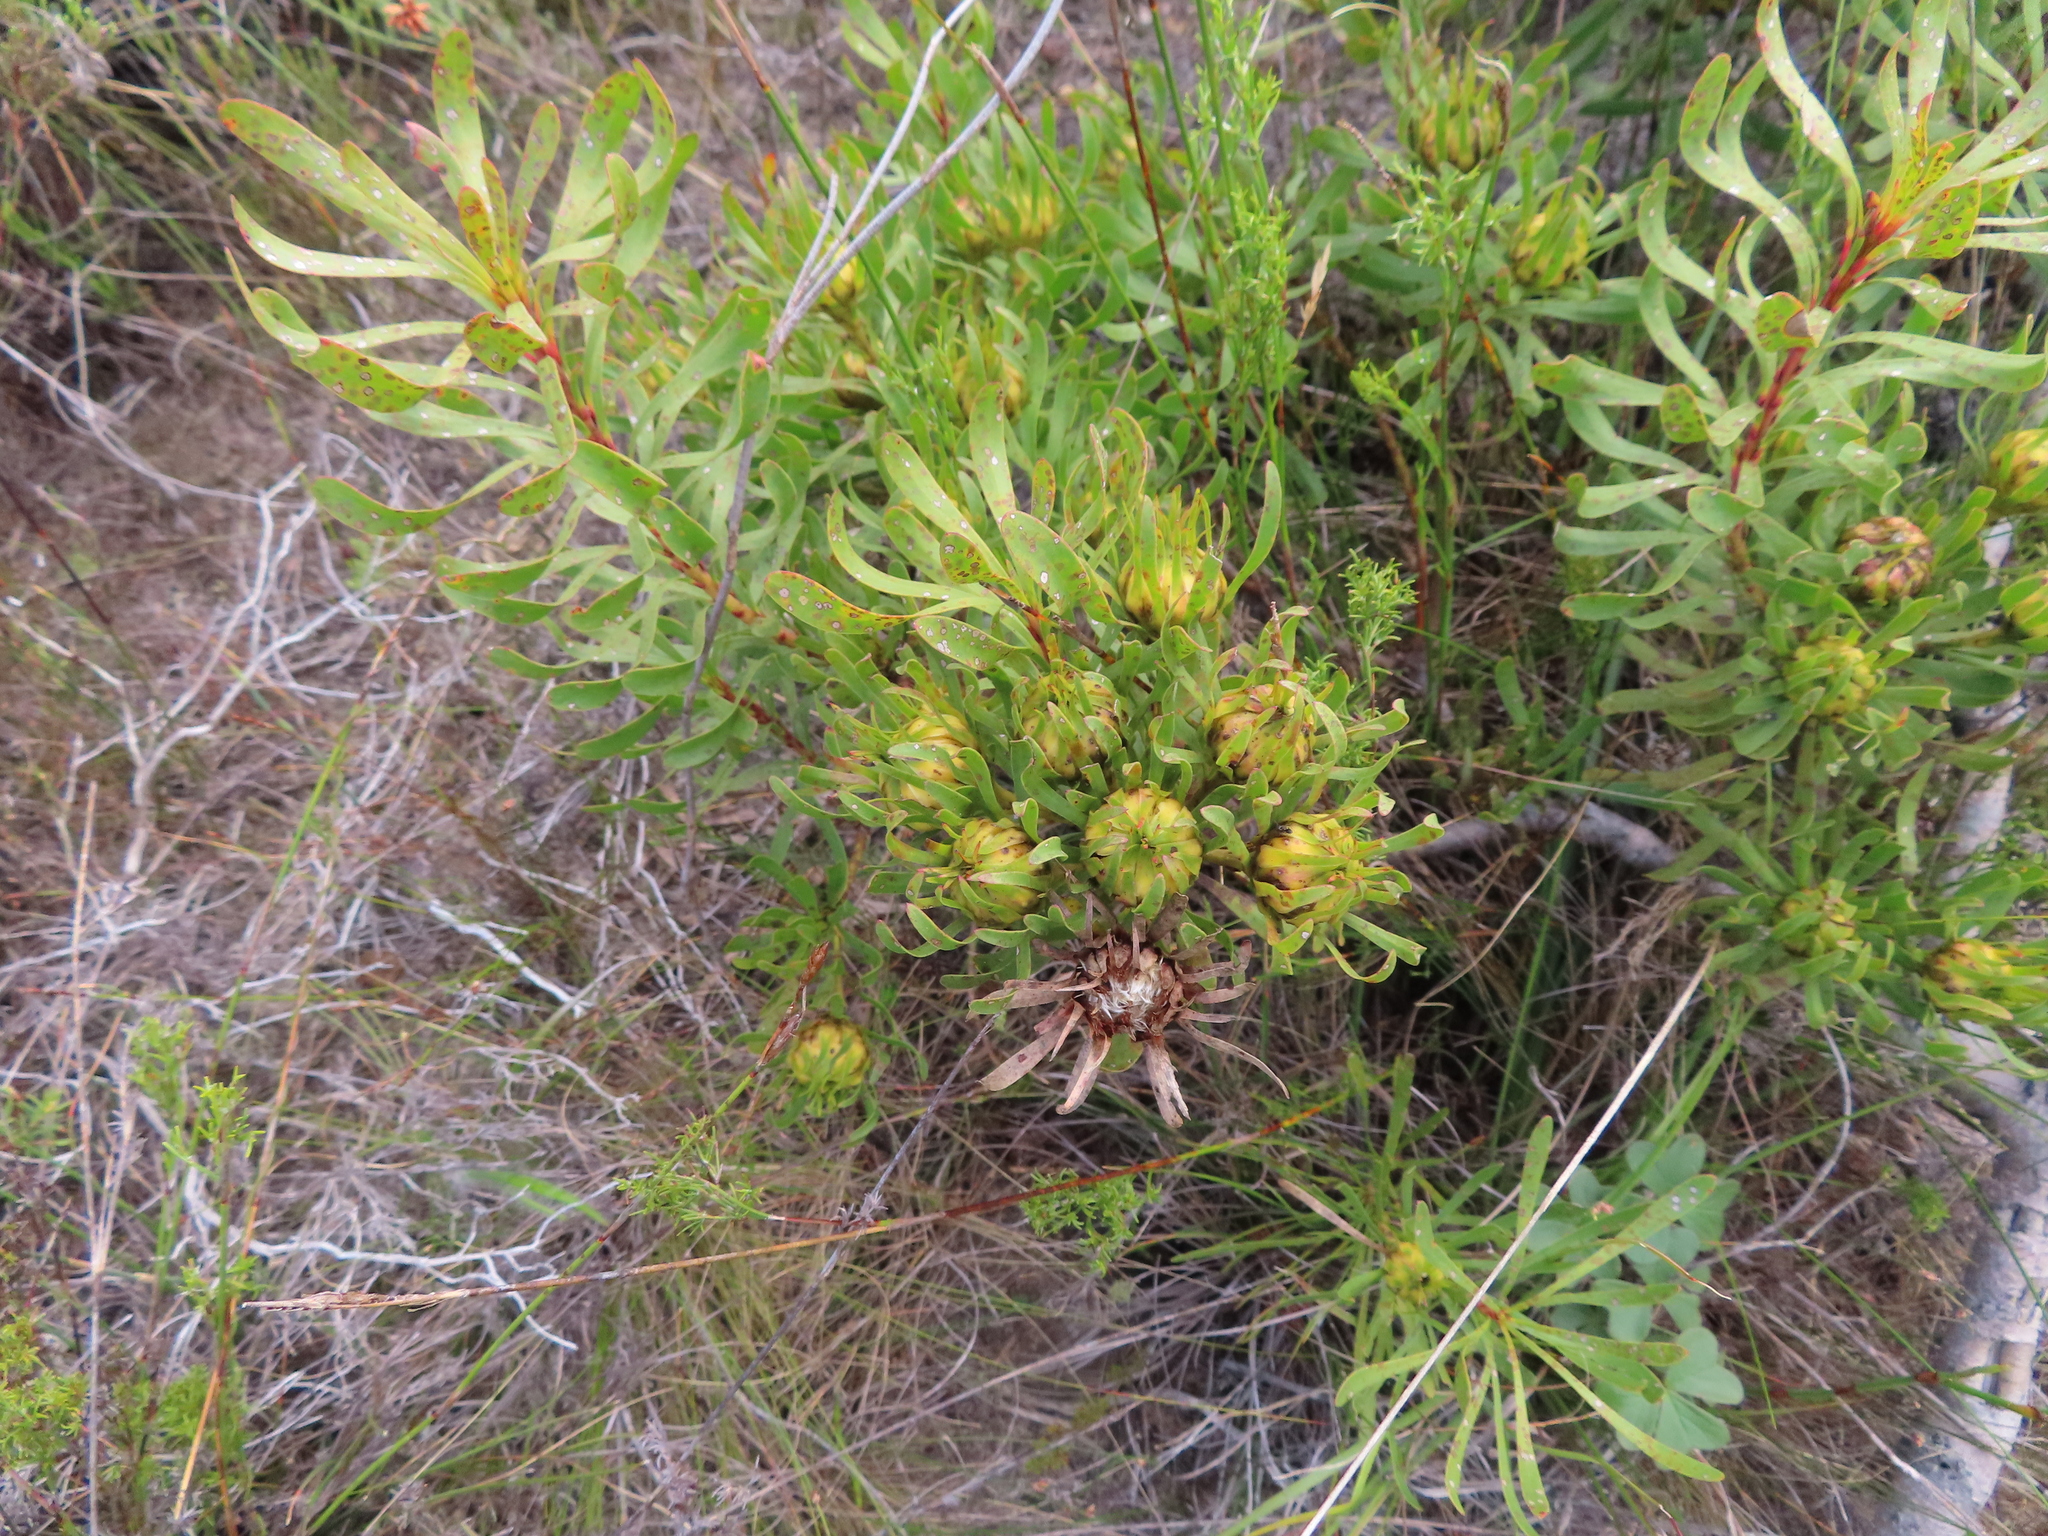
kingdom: Plantae
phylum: Tracheophyta
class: Magnoliopsida
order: Proteales
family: Proteaceae
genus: Aulax
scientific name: Aulax umbellata
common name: Broad-leaf featherbush
